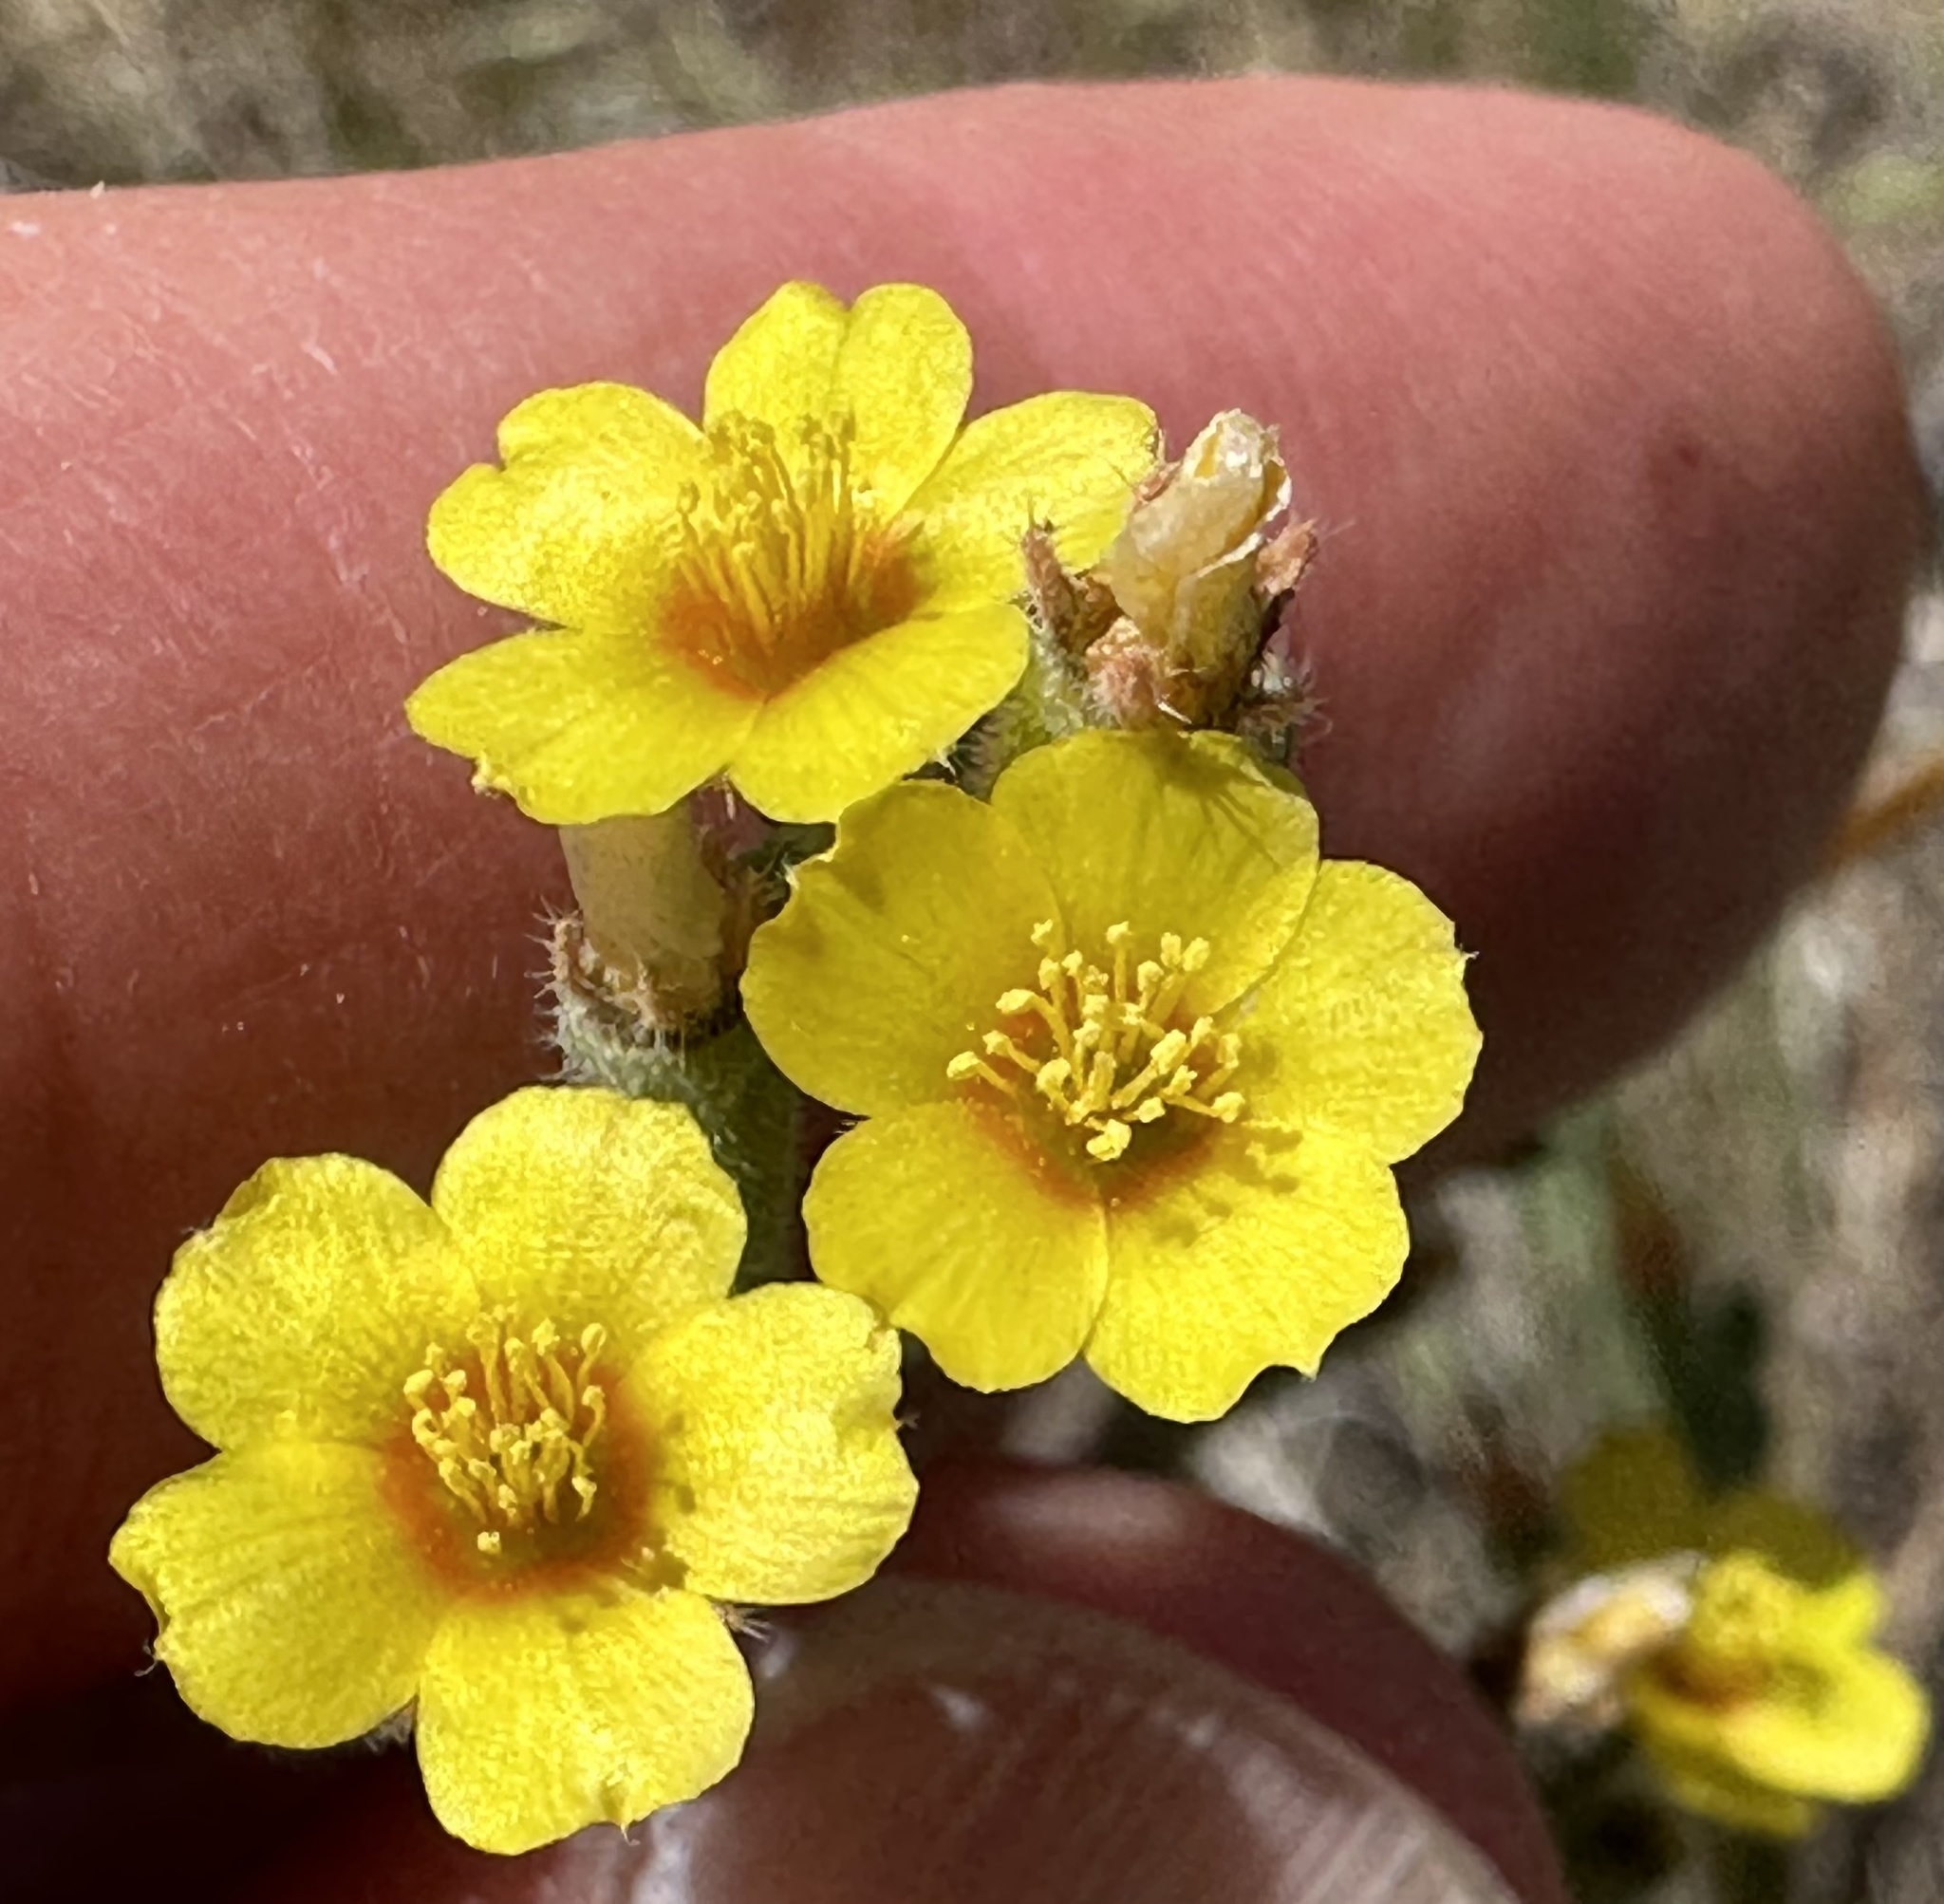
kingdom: Plantae
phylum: Tracheophyta
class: Magnoliopsida
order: Cornales
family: Loasaceae
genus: Mentzelia
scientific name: Mentzelia montana
